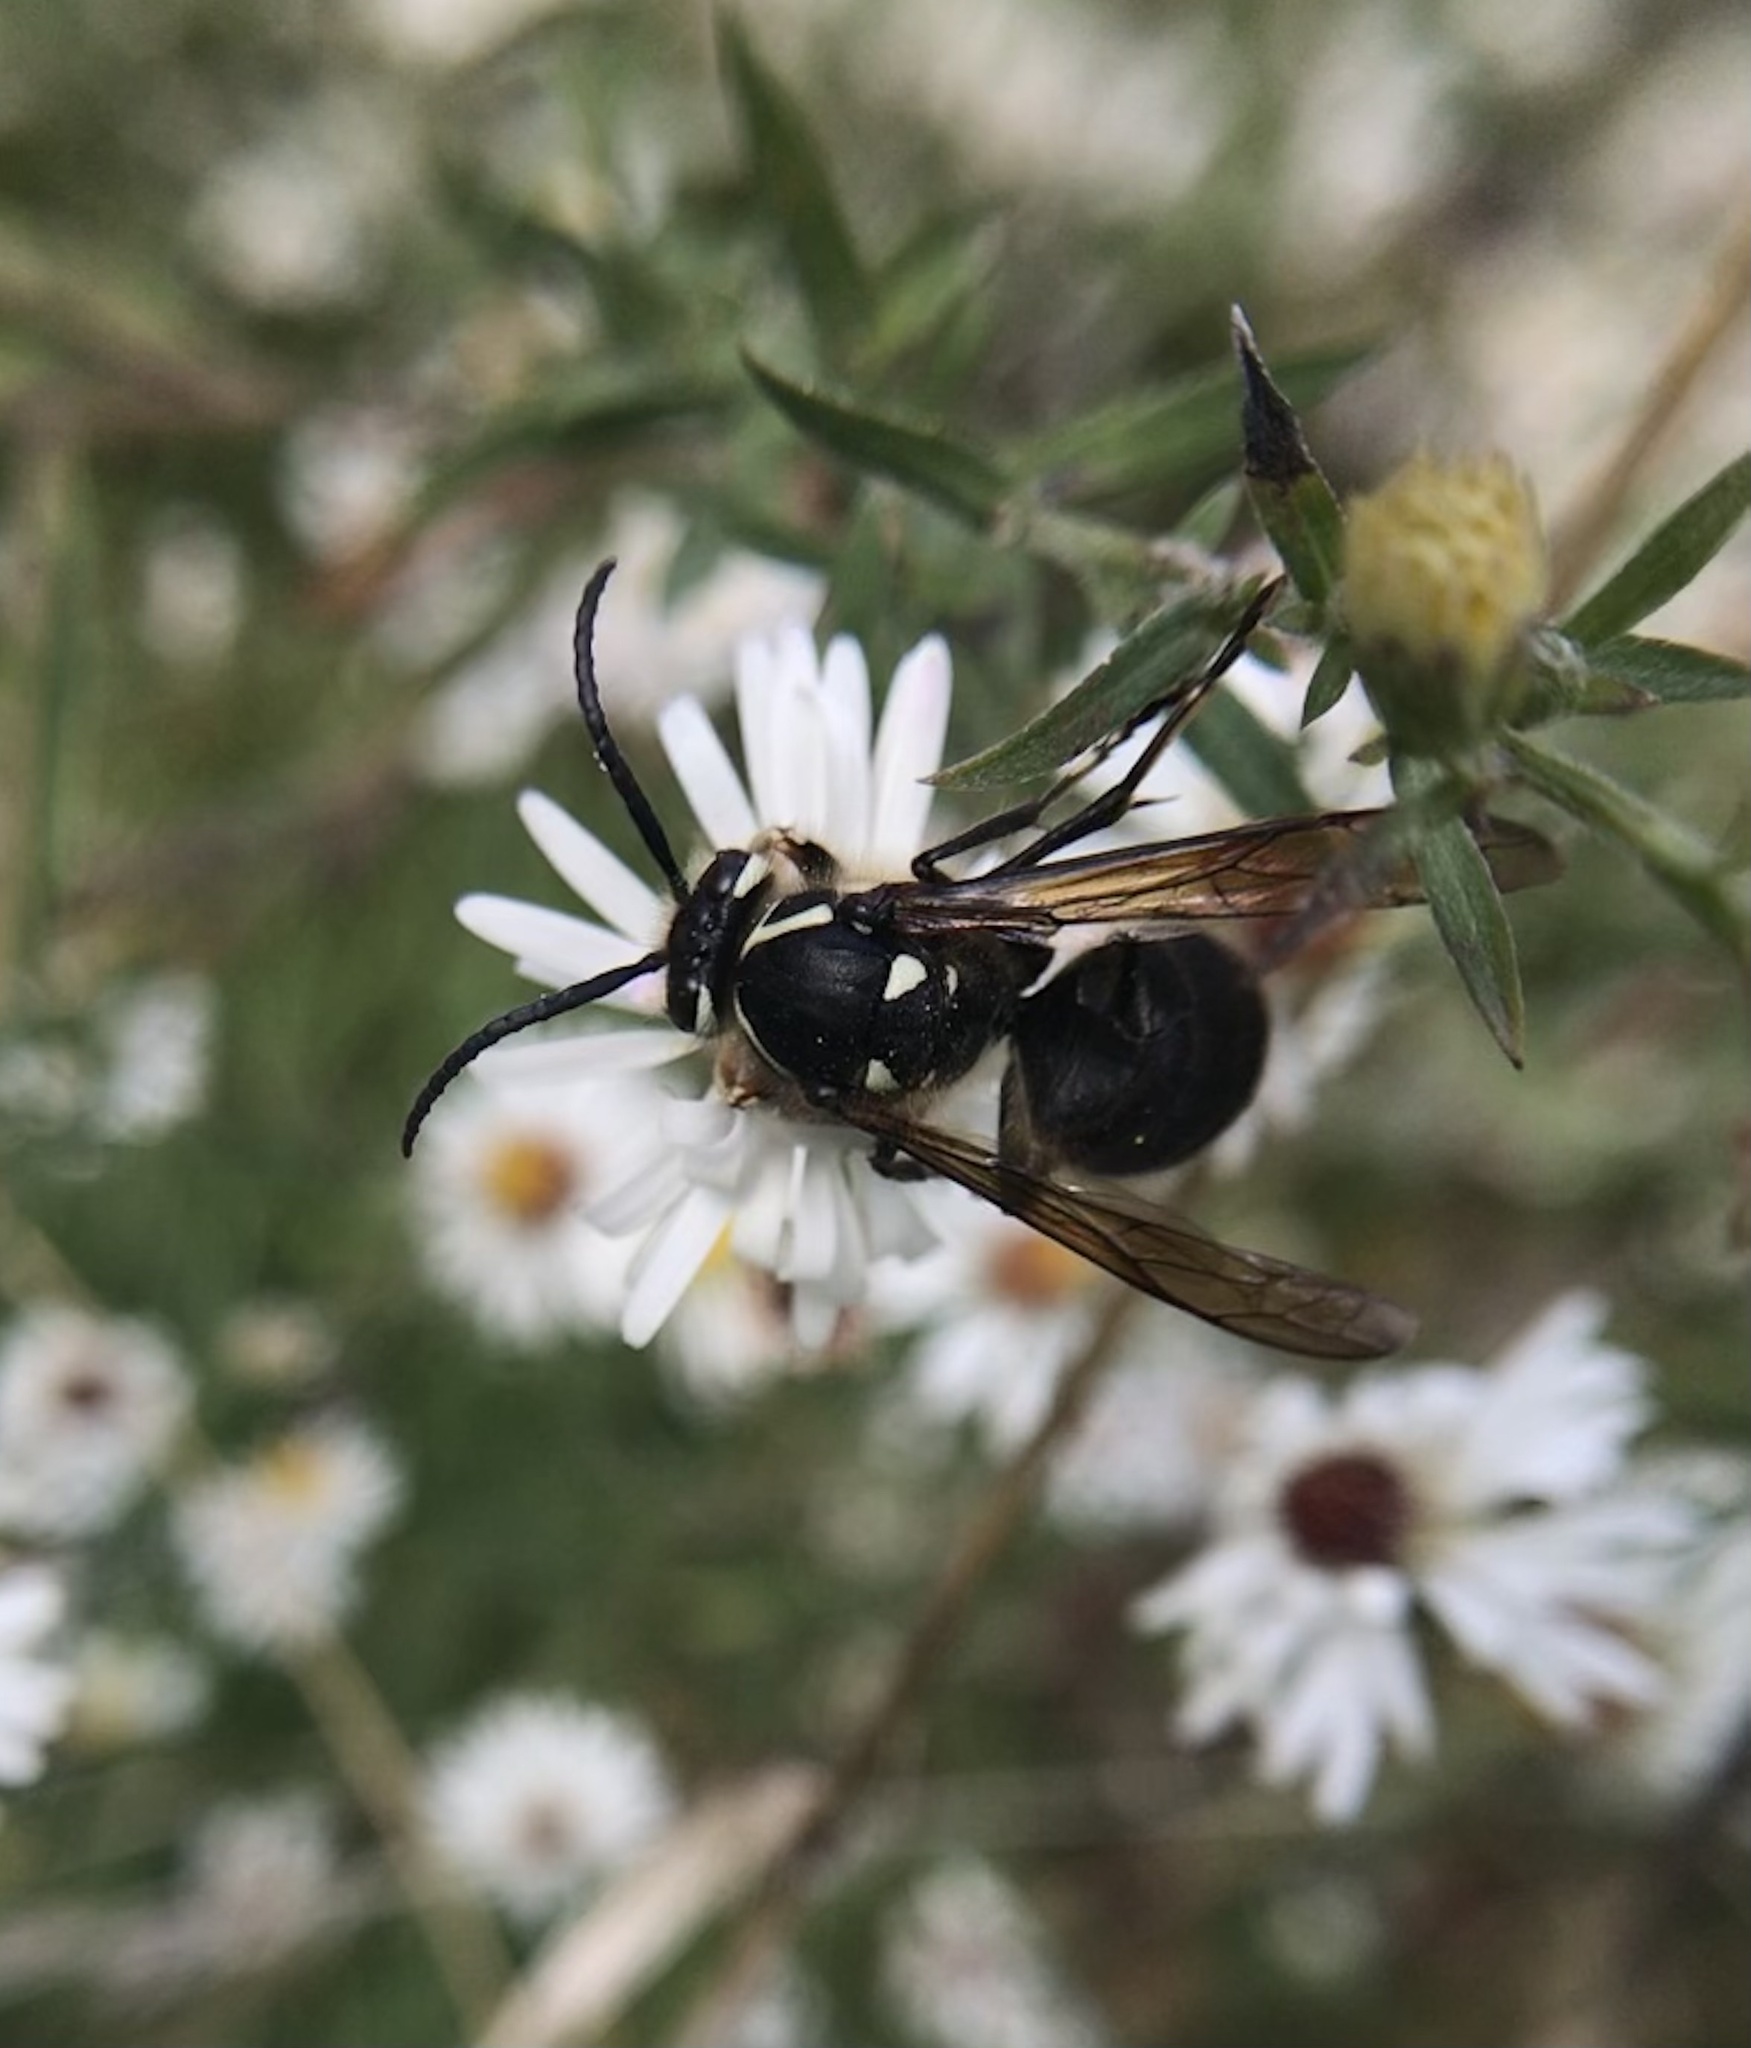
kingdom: Animalia
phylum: Arthropoda
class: Insecta
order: Hymenoptera
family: Vespidae
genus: Dolichovespula
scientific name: Dolichovespula maculata
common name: Bald-faced hornet
